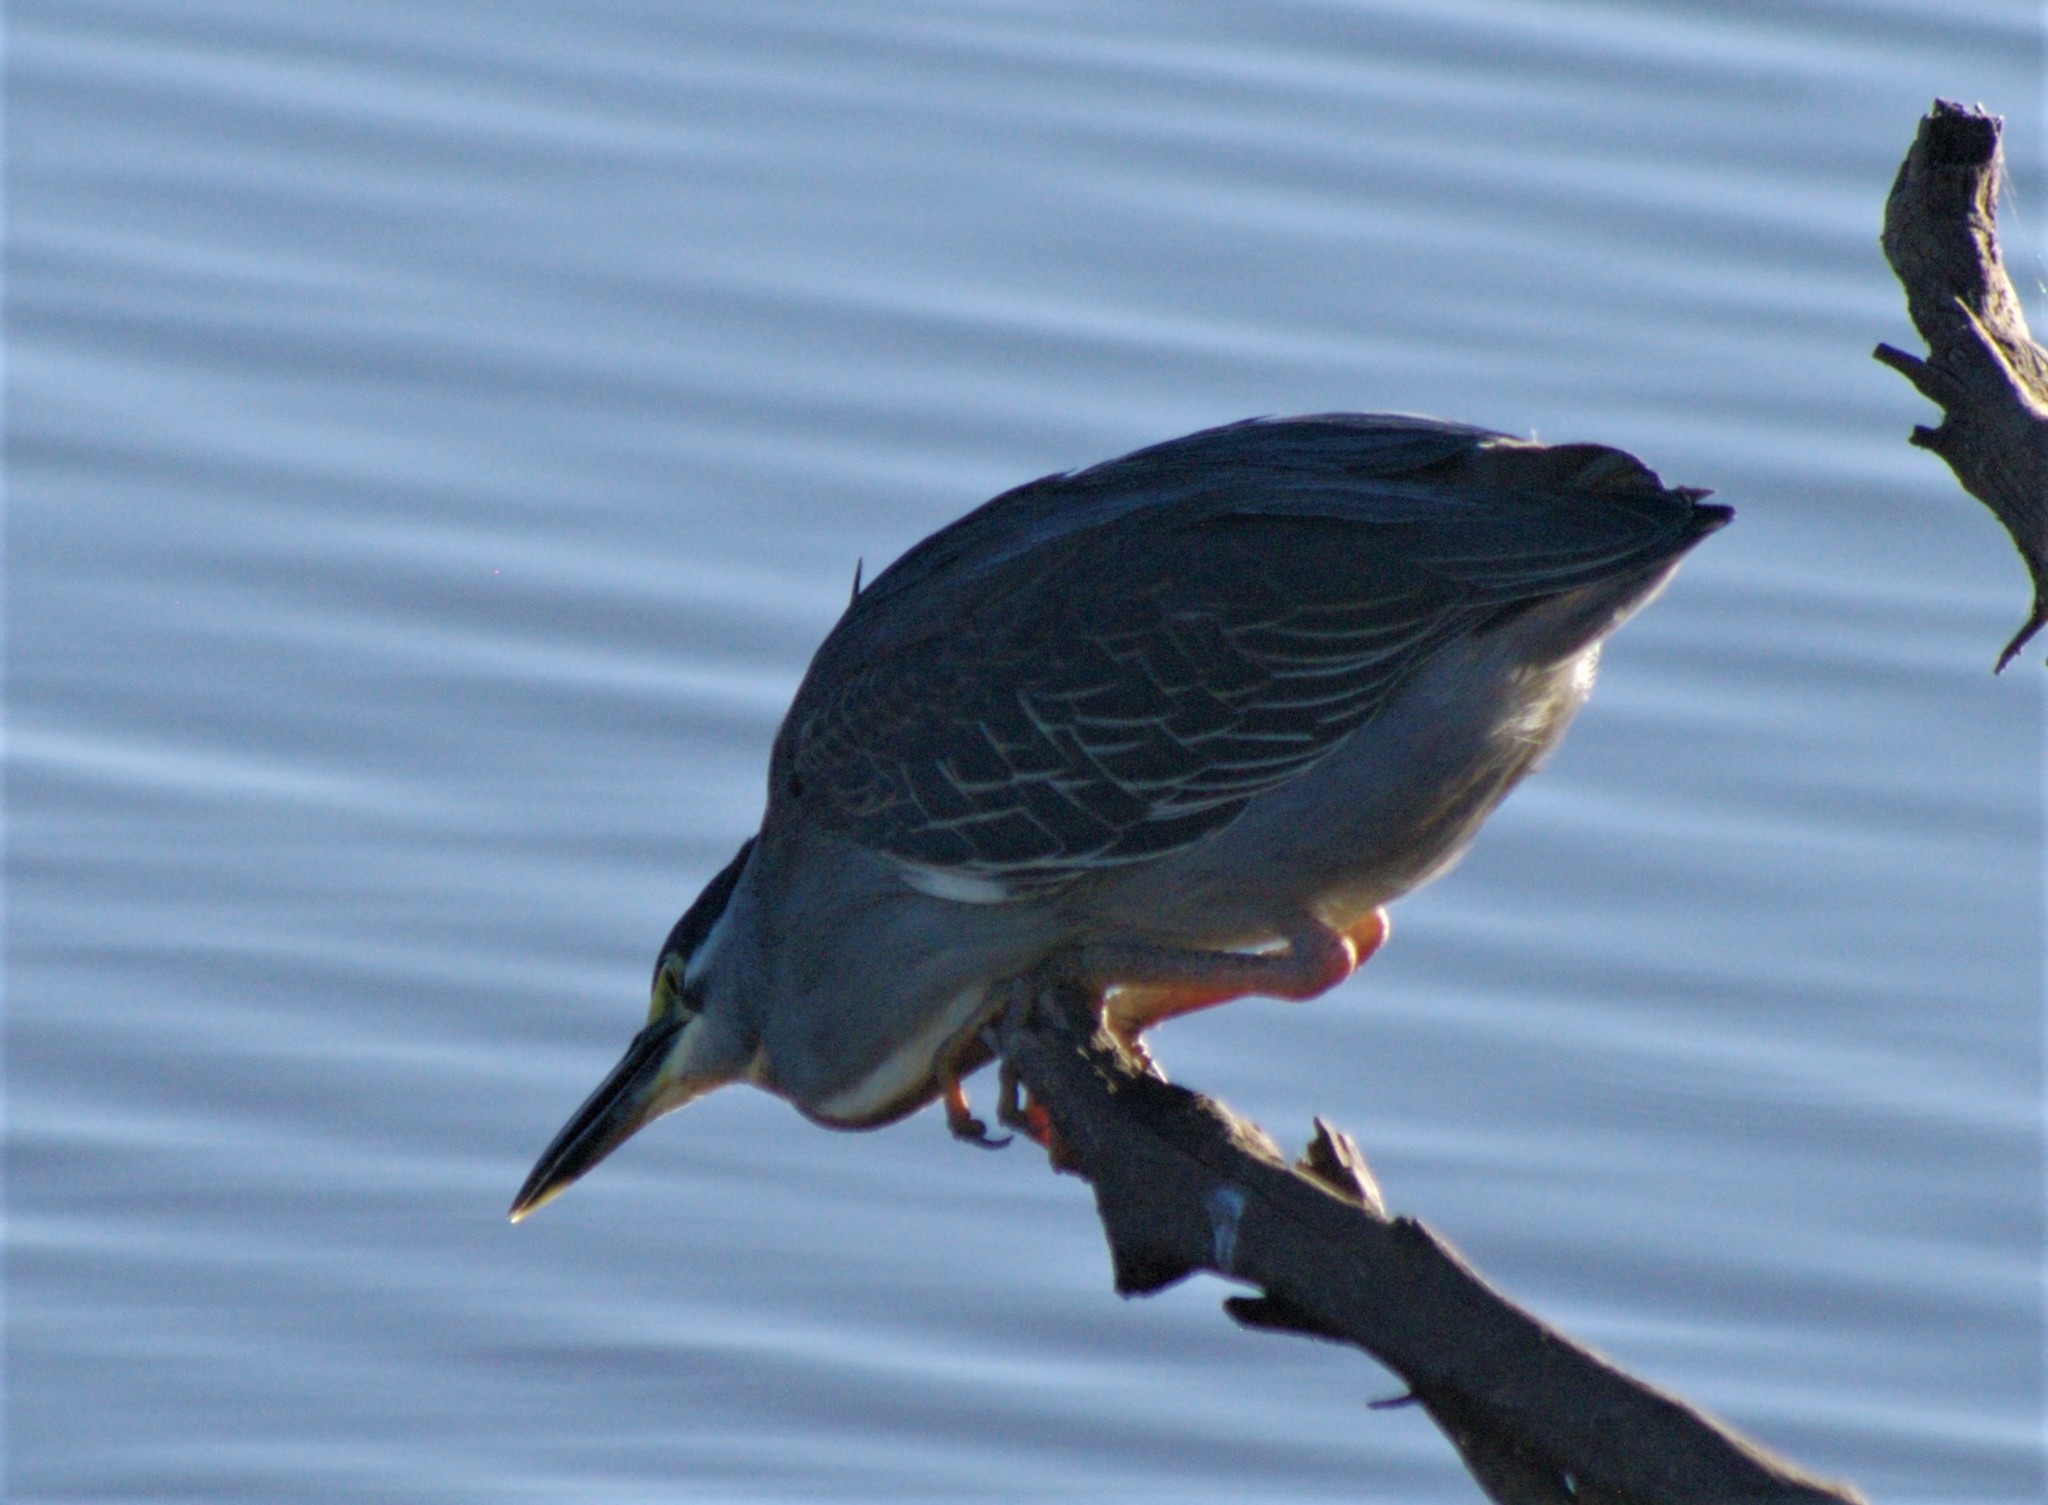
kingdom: Animalia
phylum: Chordata
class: Aves
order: Pelecaniformes
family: Ardeidae
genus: Butorides
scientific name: Butorides striata
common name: Striated heron
